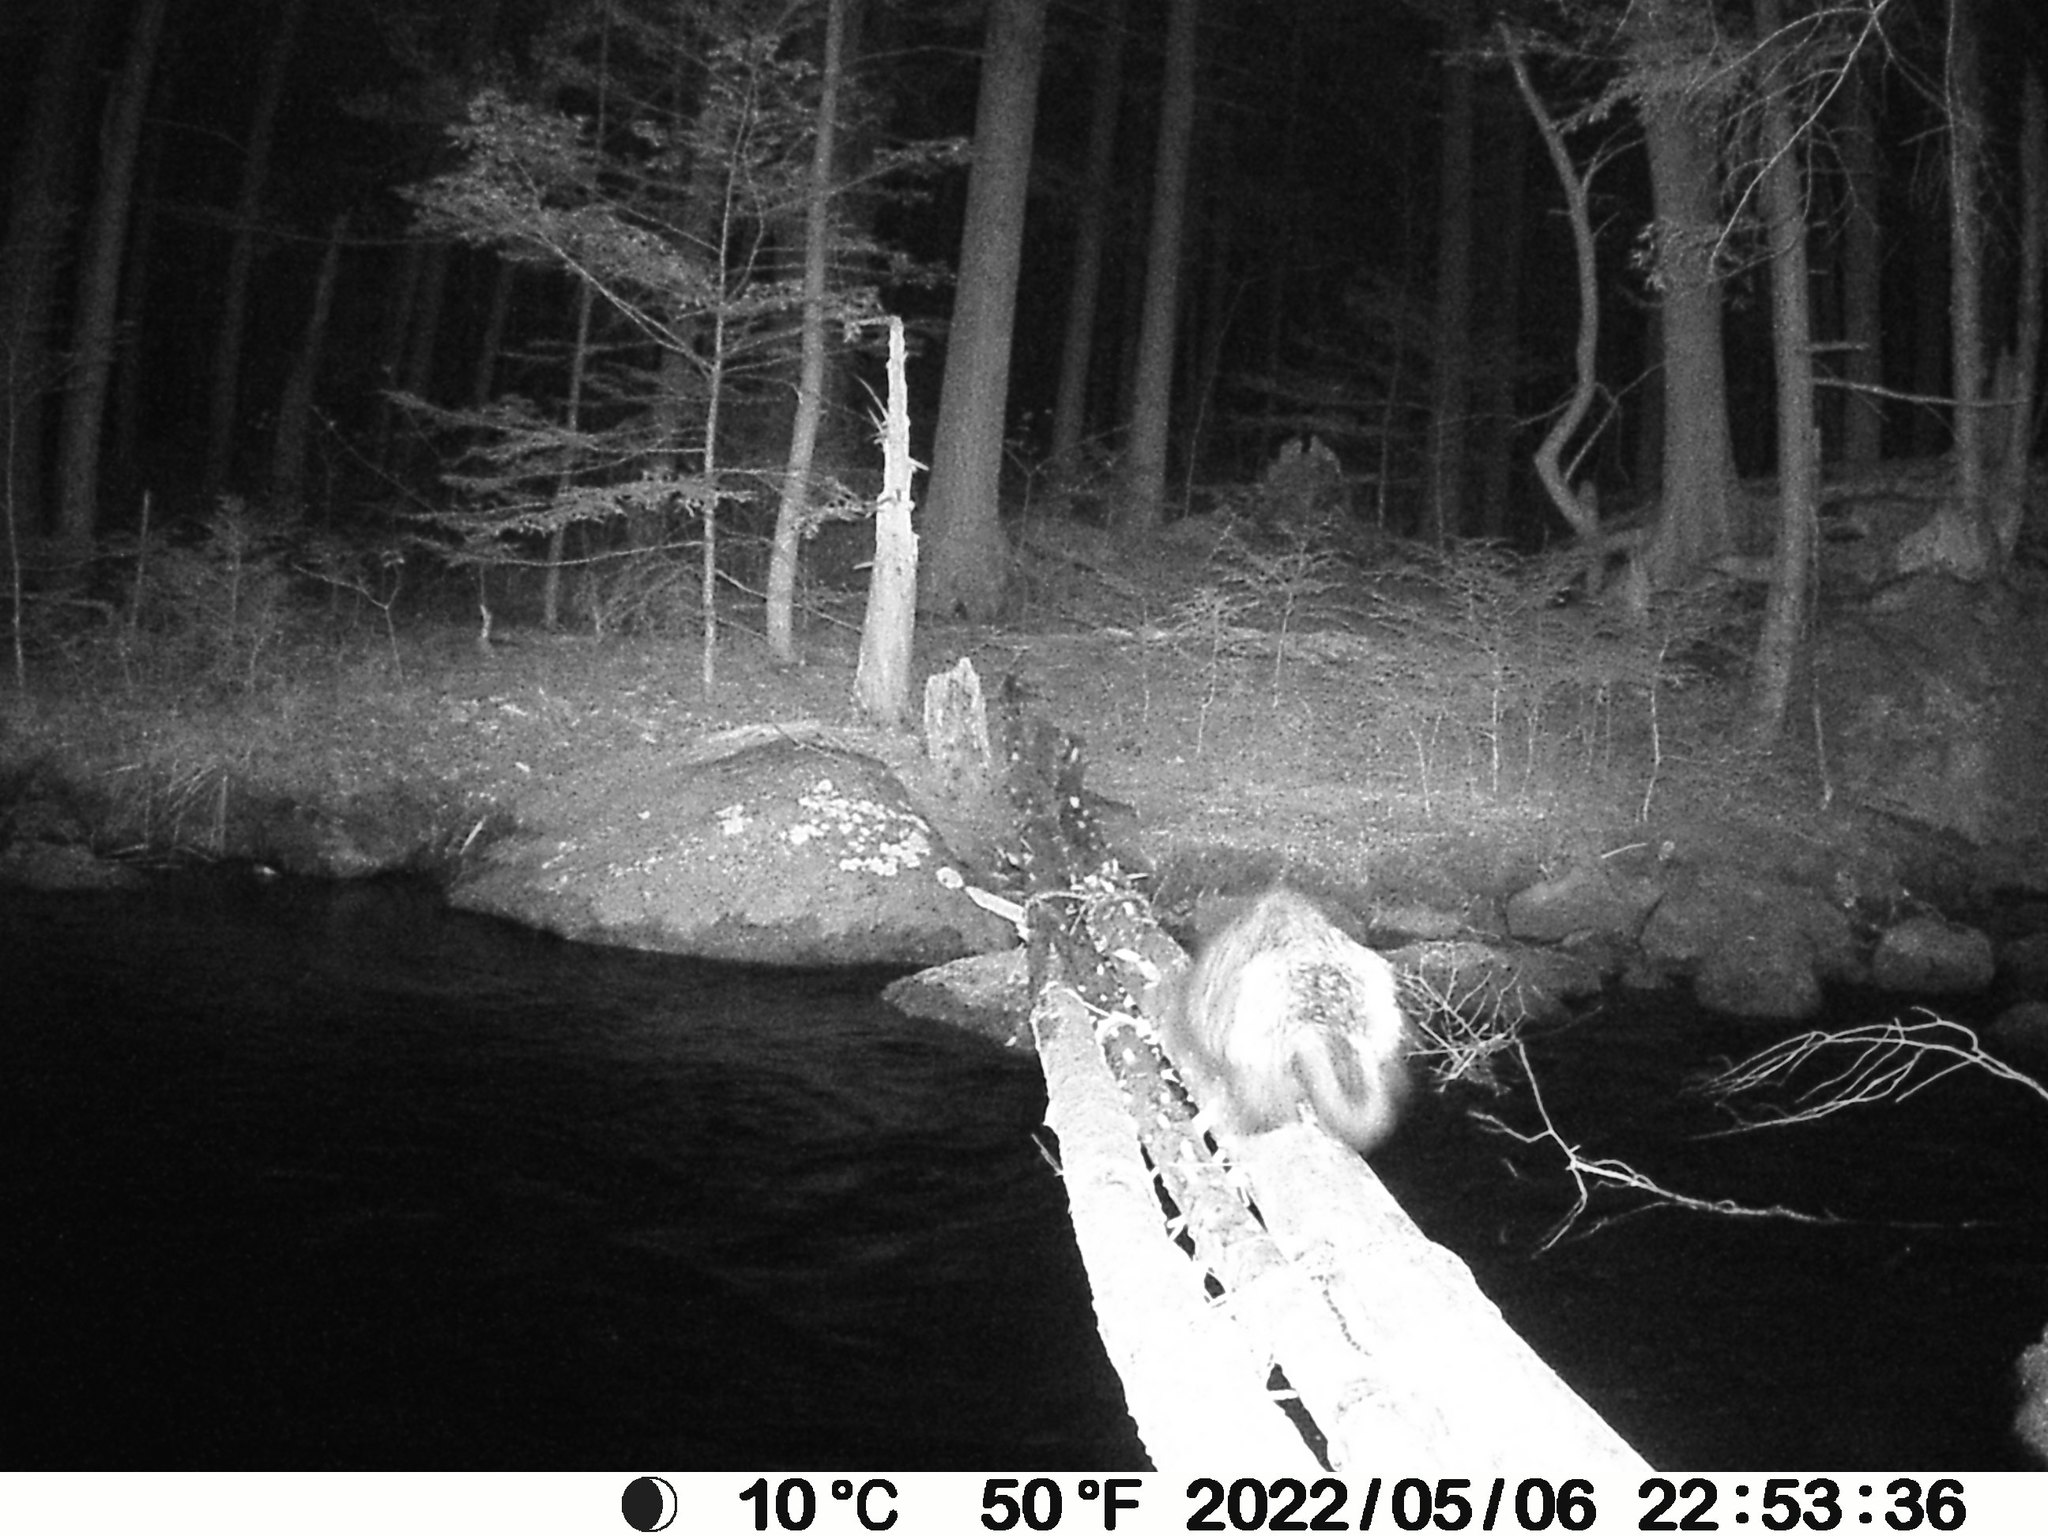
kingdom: Animalia
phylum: Chordata
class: Mammalia
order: Rodentia
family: Erethizontidae
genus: Erethizon
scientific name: Erethizon dorsatus
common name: North american porcupine
